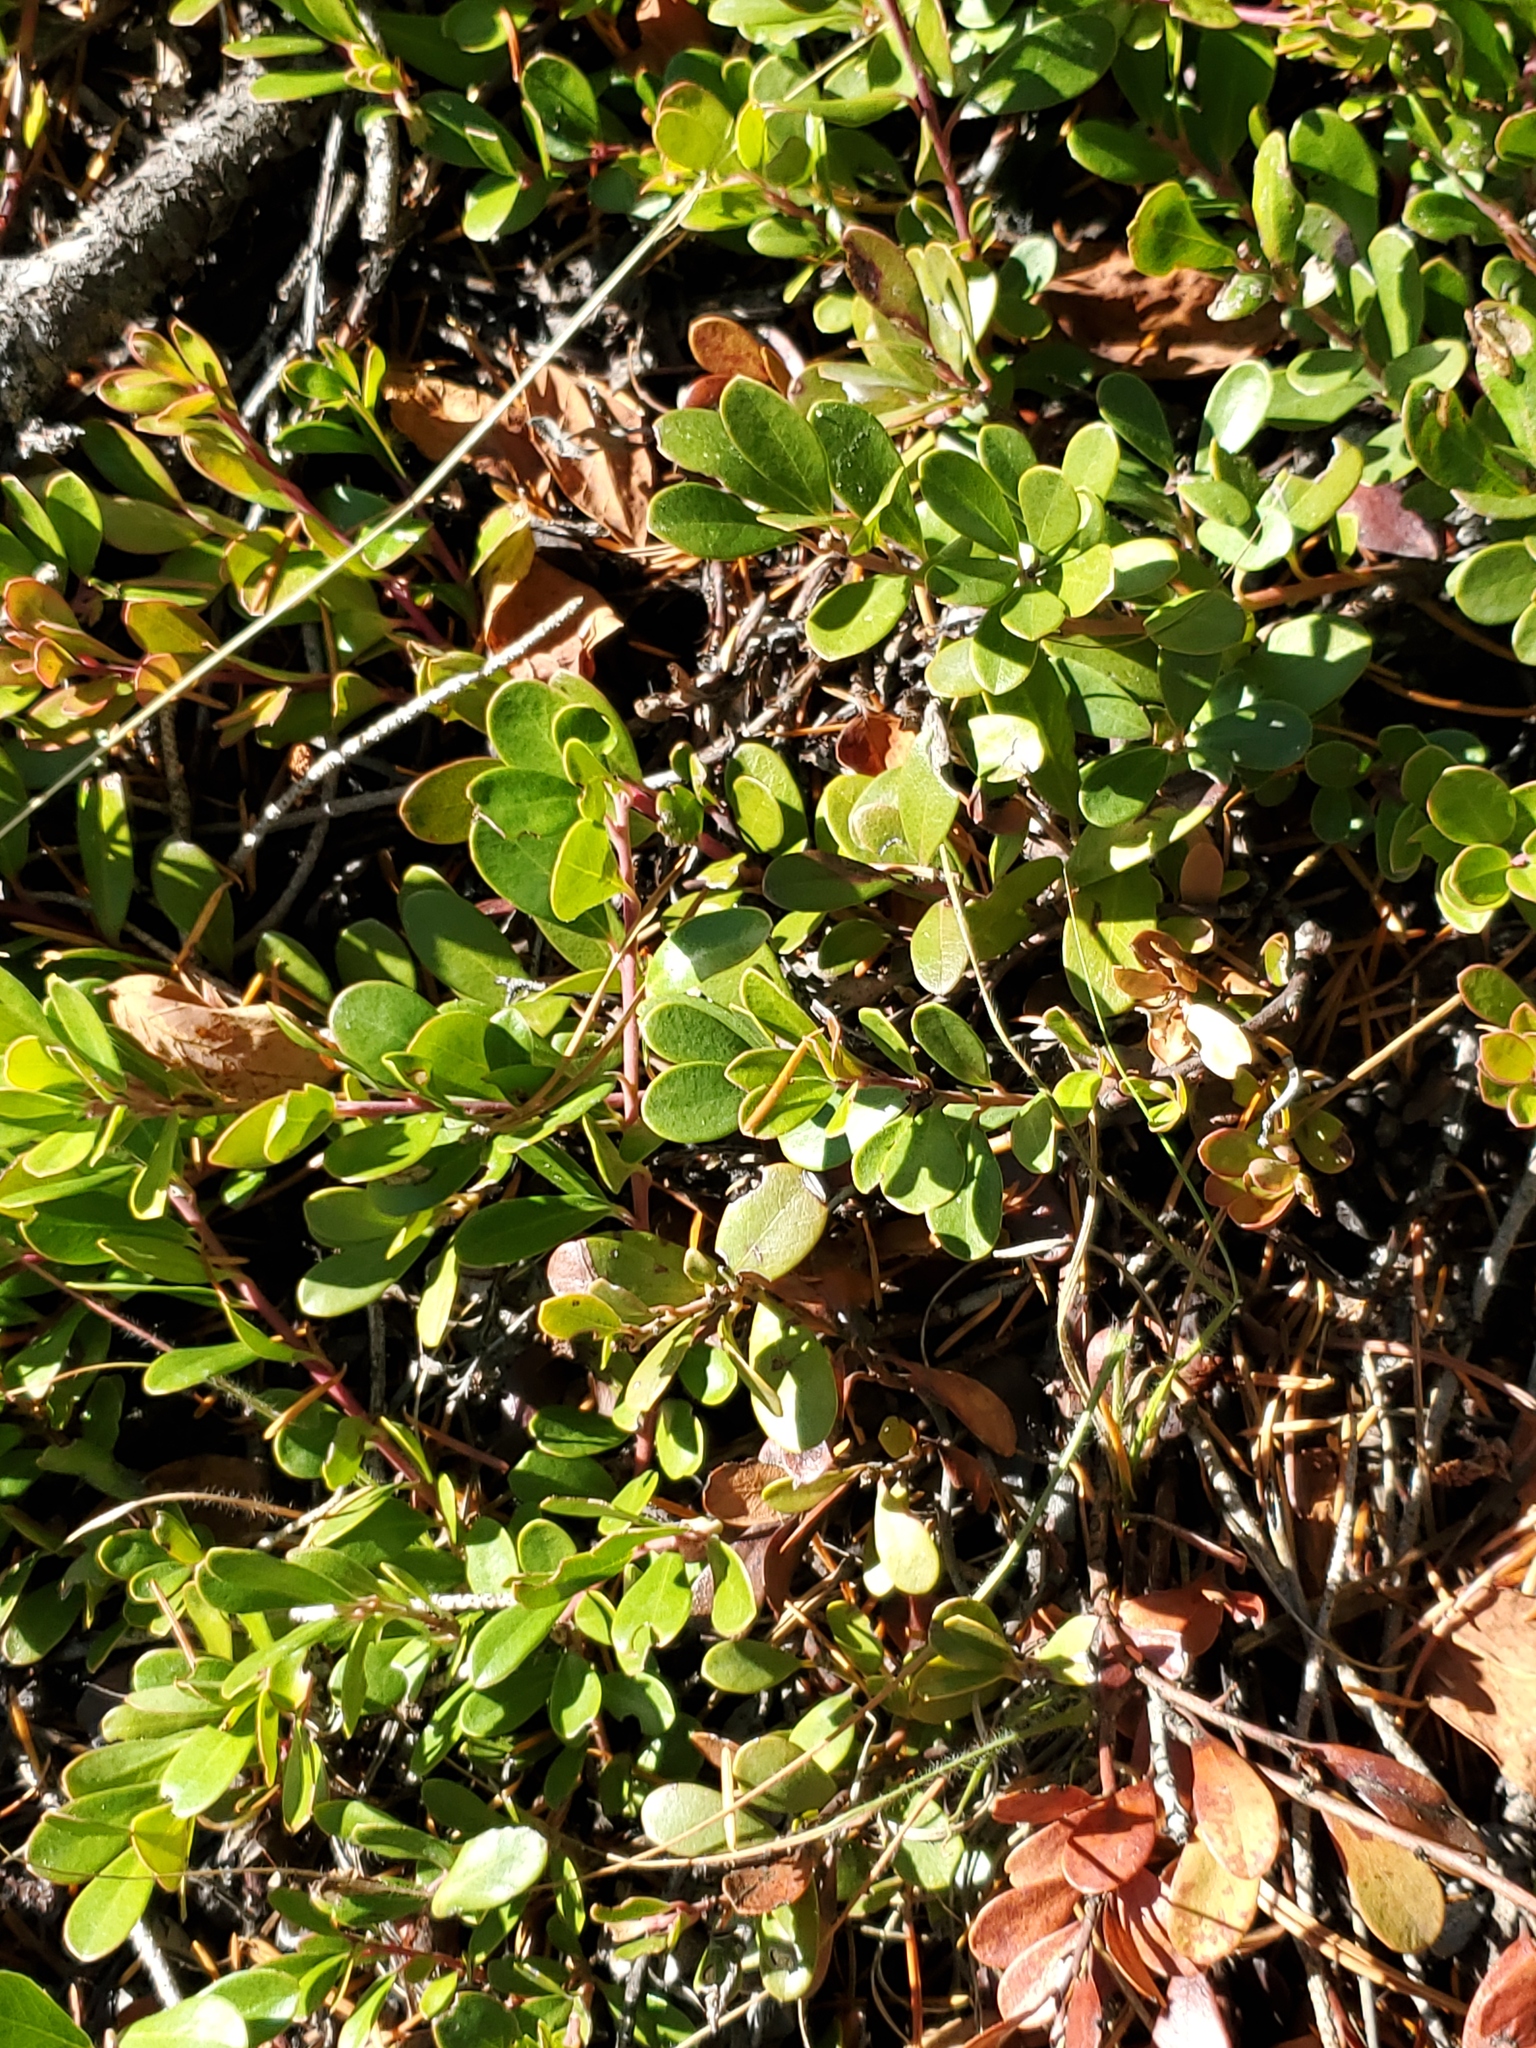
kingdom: Plantae
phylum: Tracheophyta
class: Magnoliopsida
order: Ericales
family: Ericaceae
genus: Arctostaphylos
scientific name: Arctostaphylos uva-ursi
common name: Bearberry
